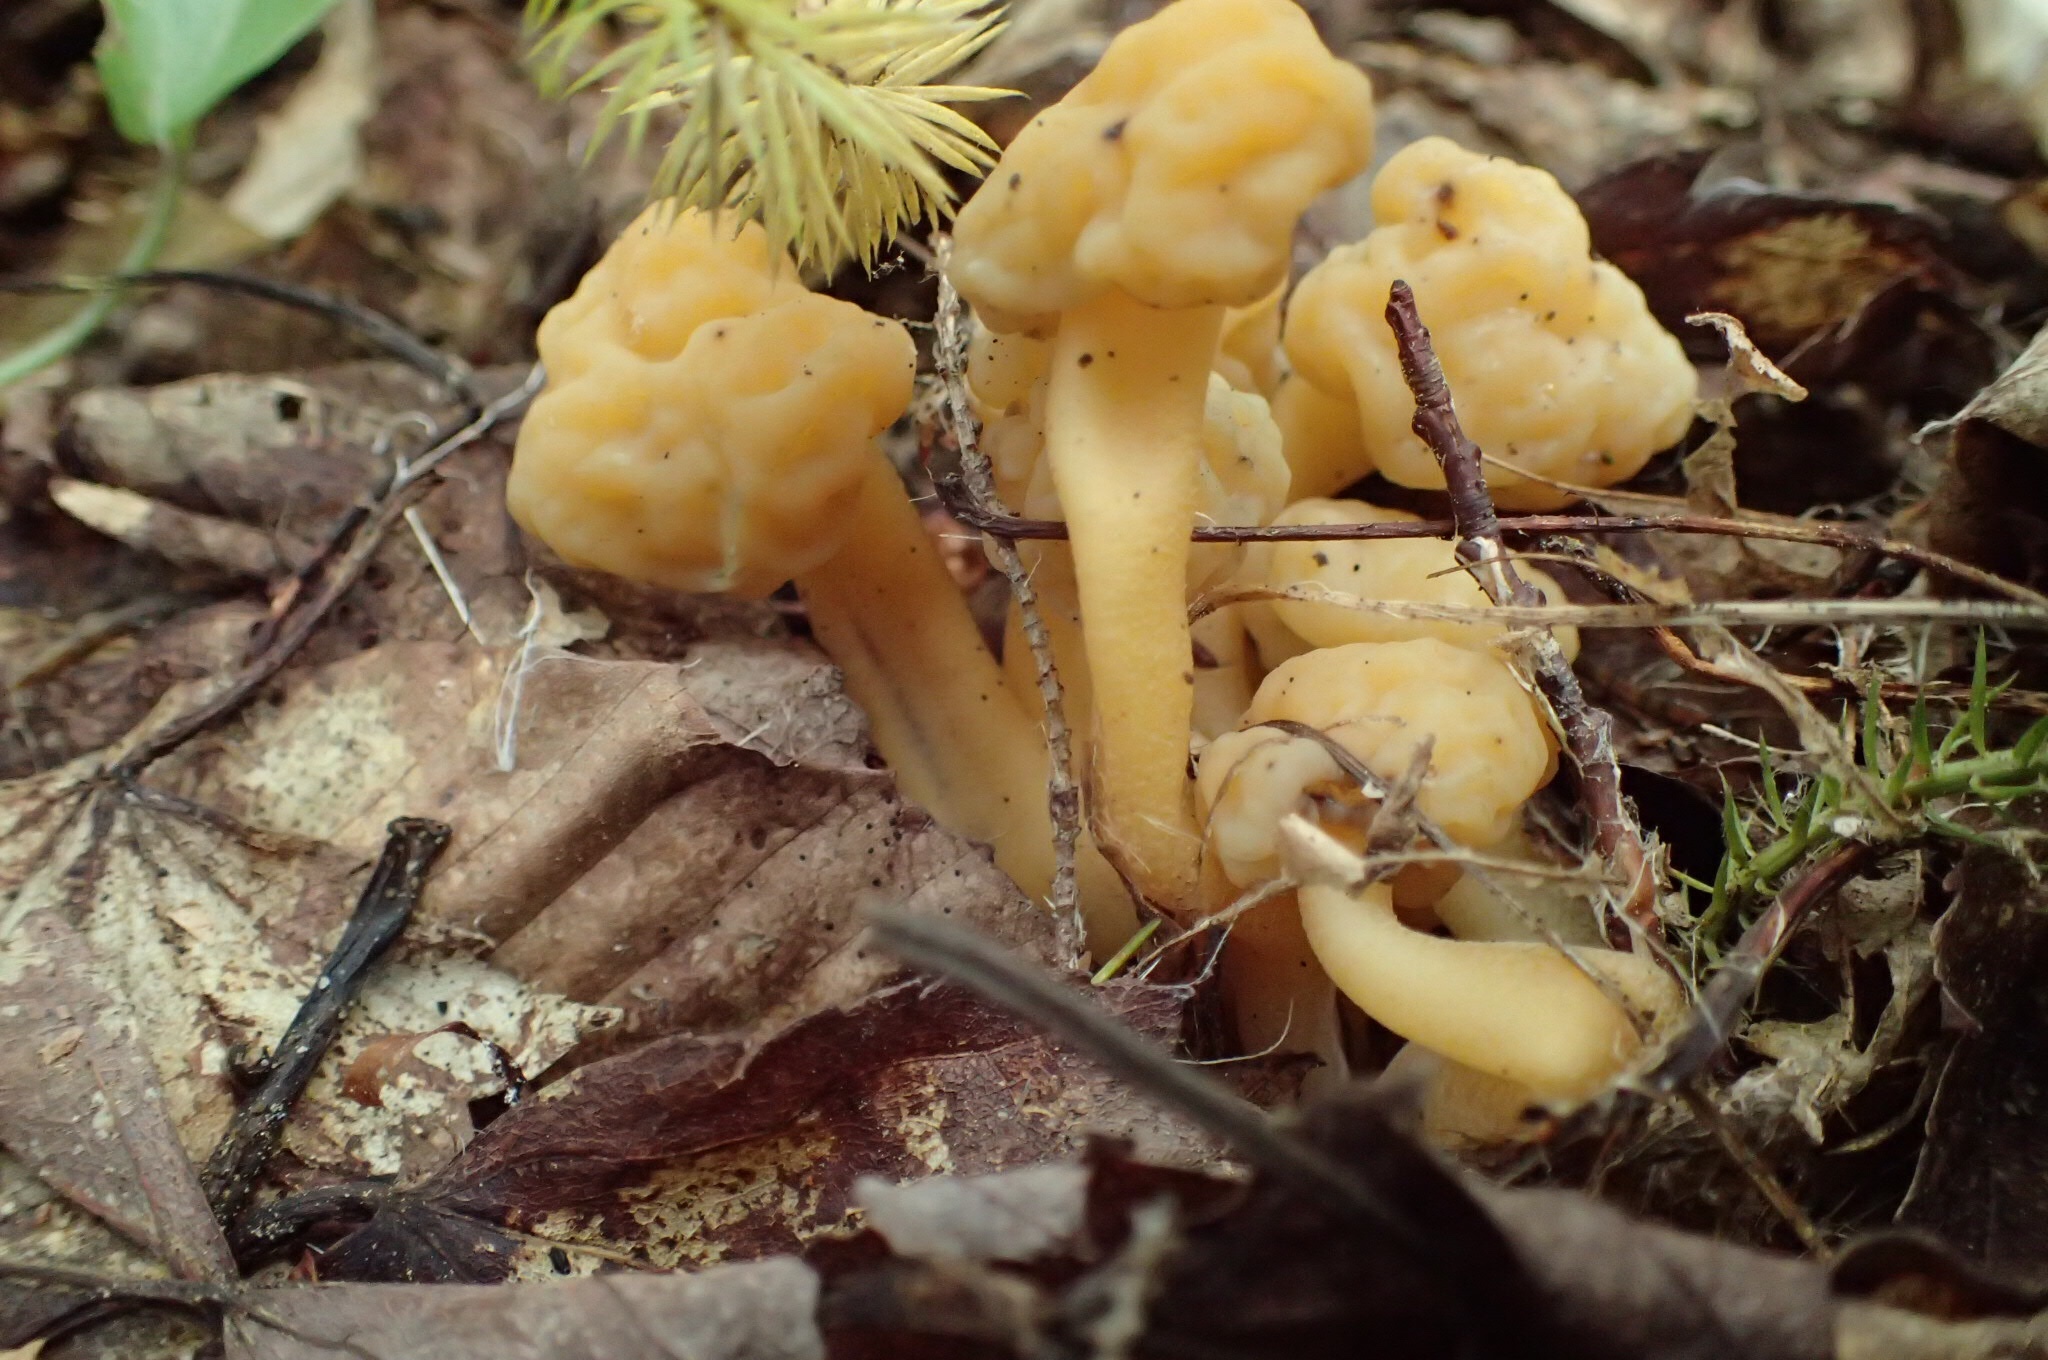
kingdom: Fungi
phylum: Ascomycota
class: Leotiomycetes
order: Leotiales
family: Leotiaceae
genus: Leotia
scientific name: Leotia lubrica
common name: Jellybaby
